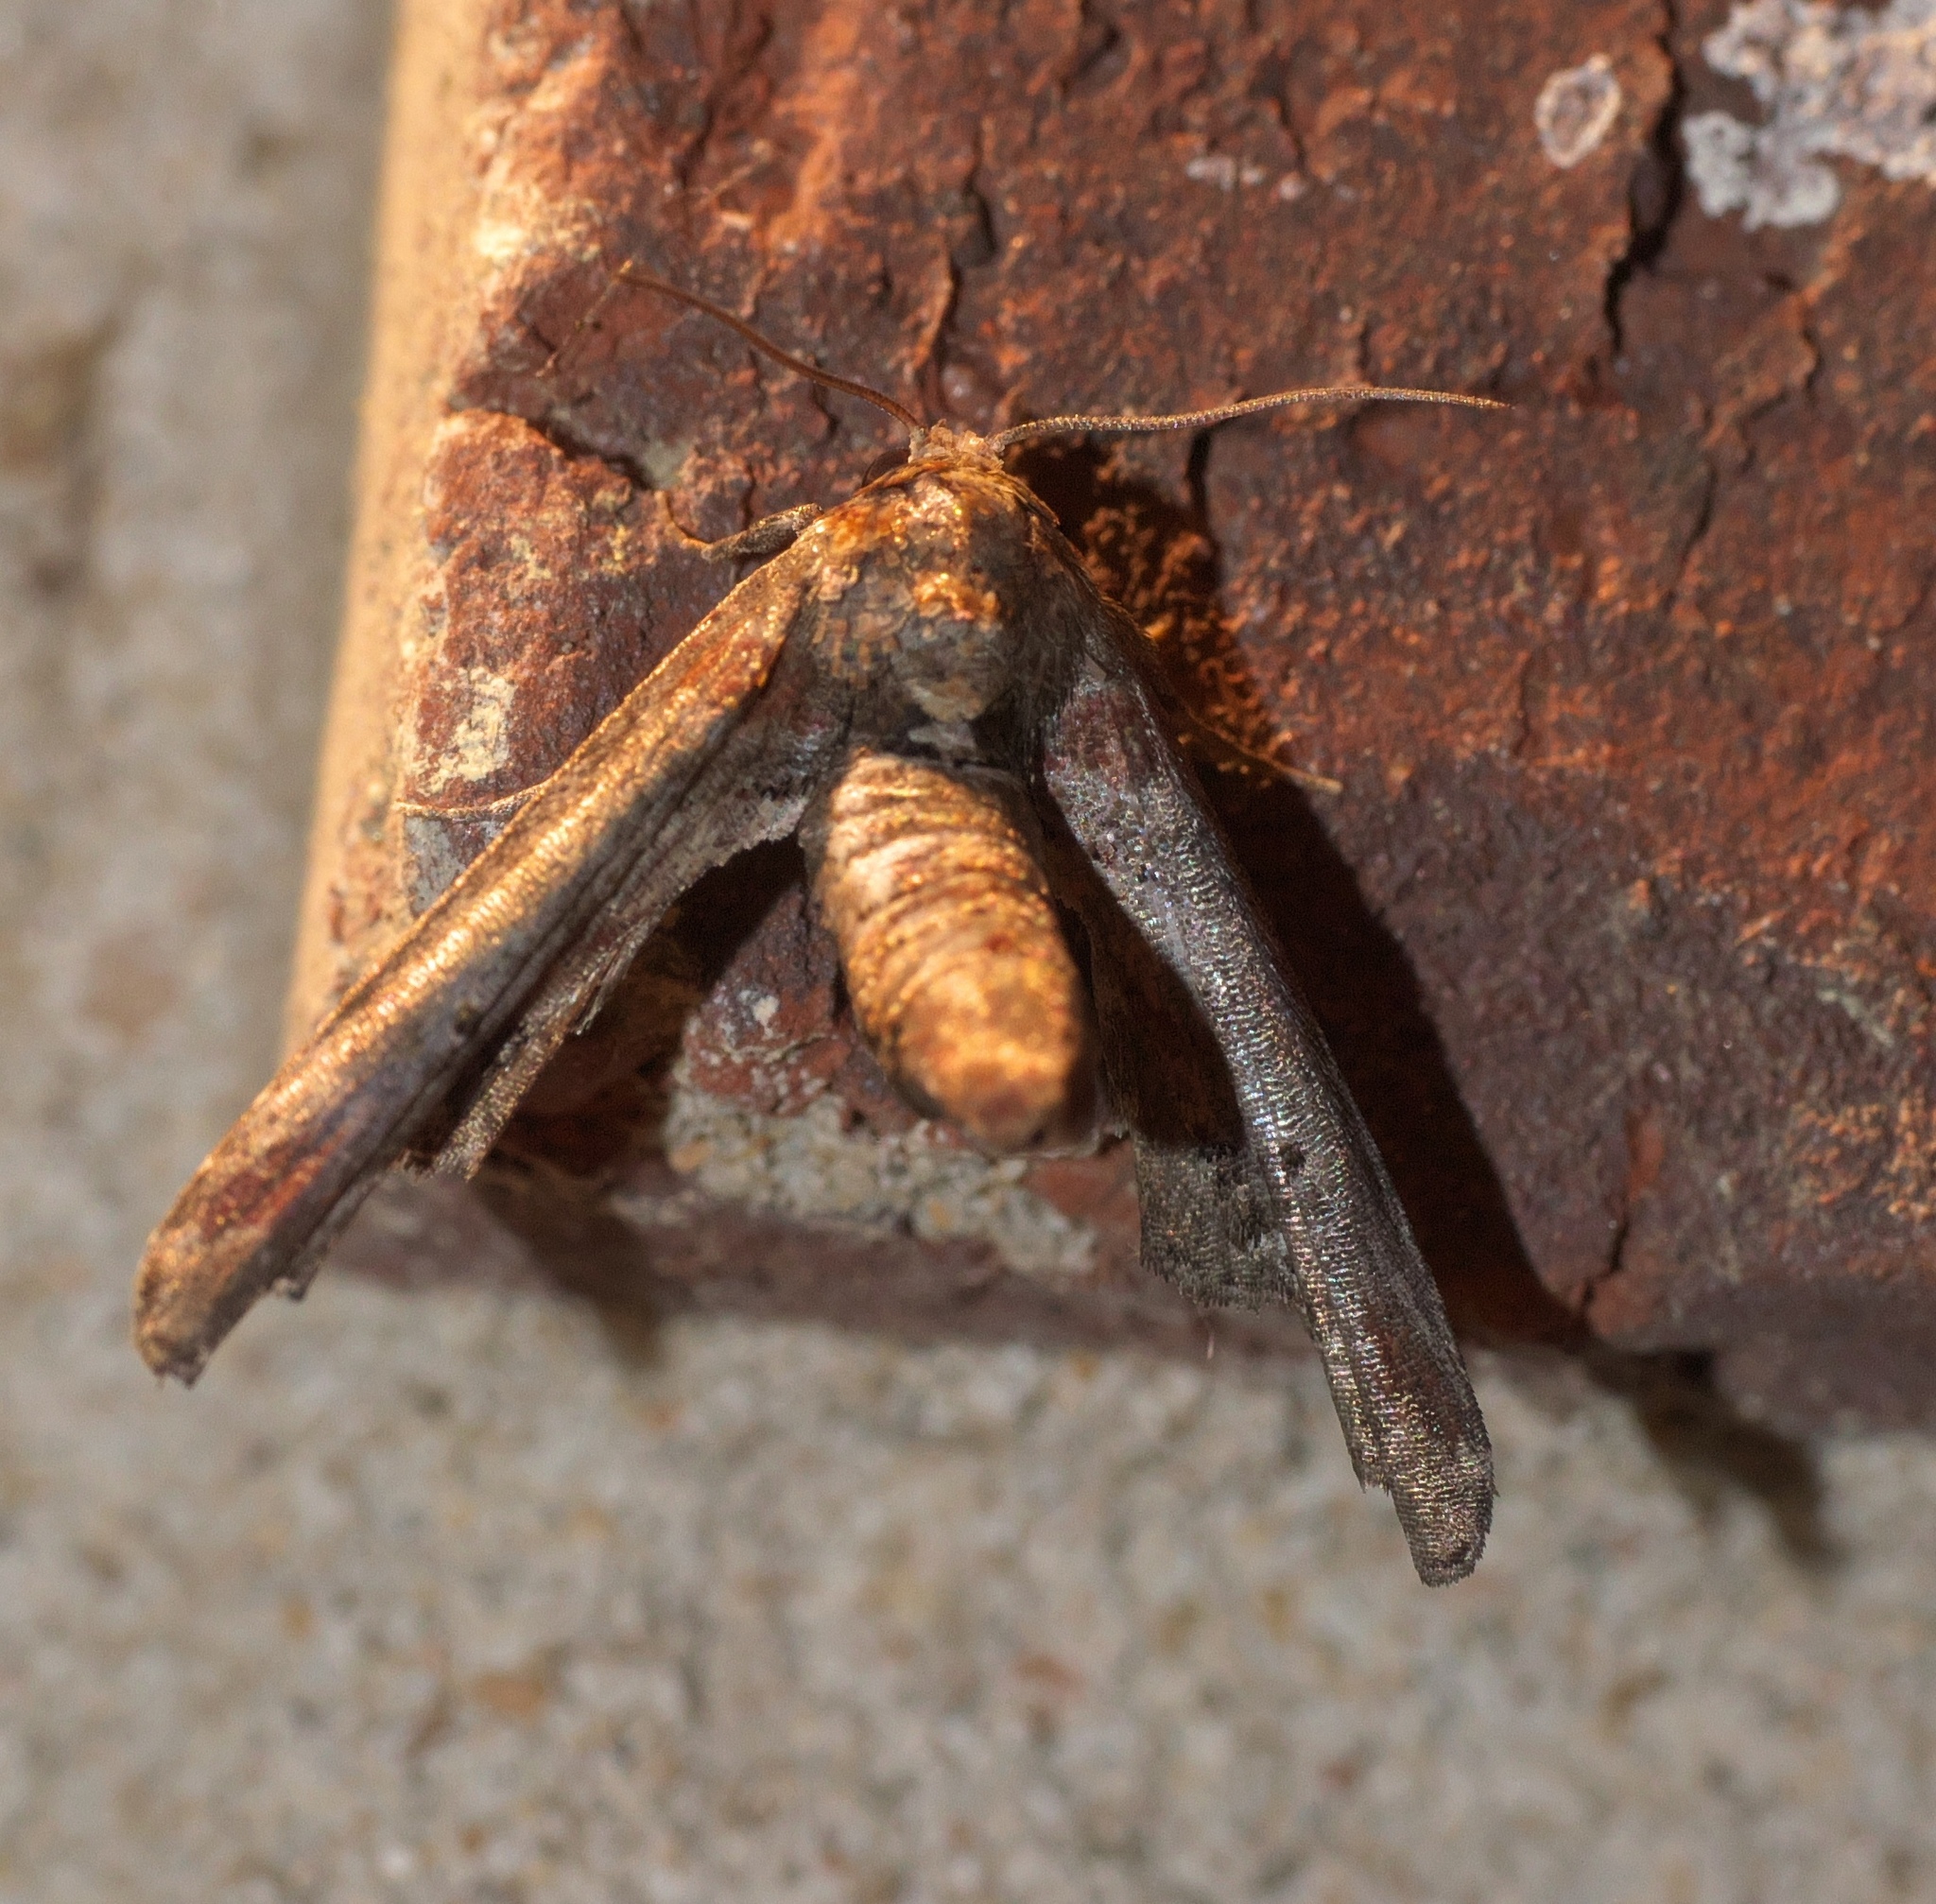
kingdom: Animalia
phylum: Arthropoda
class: Insecta
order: Lepidoptera
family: Euteliidae
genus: Marathyssa
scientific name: Marathyssa inficita
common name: Dark marathyssa moth
